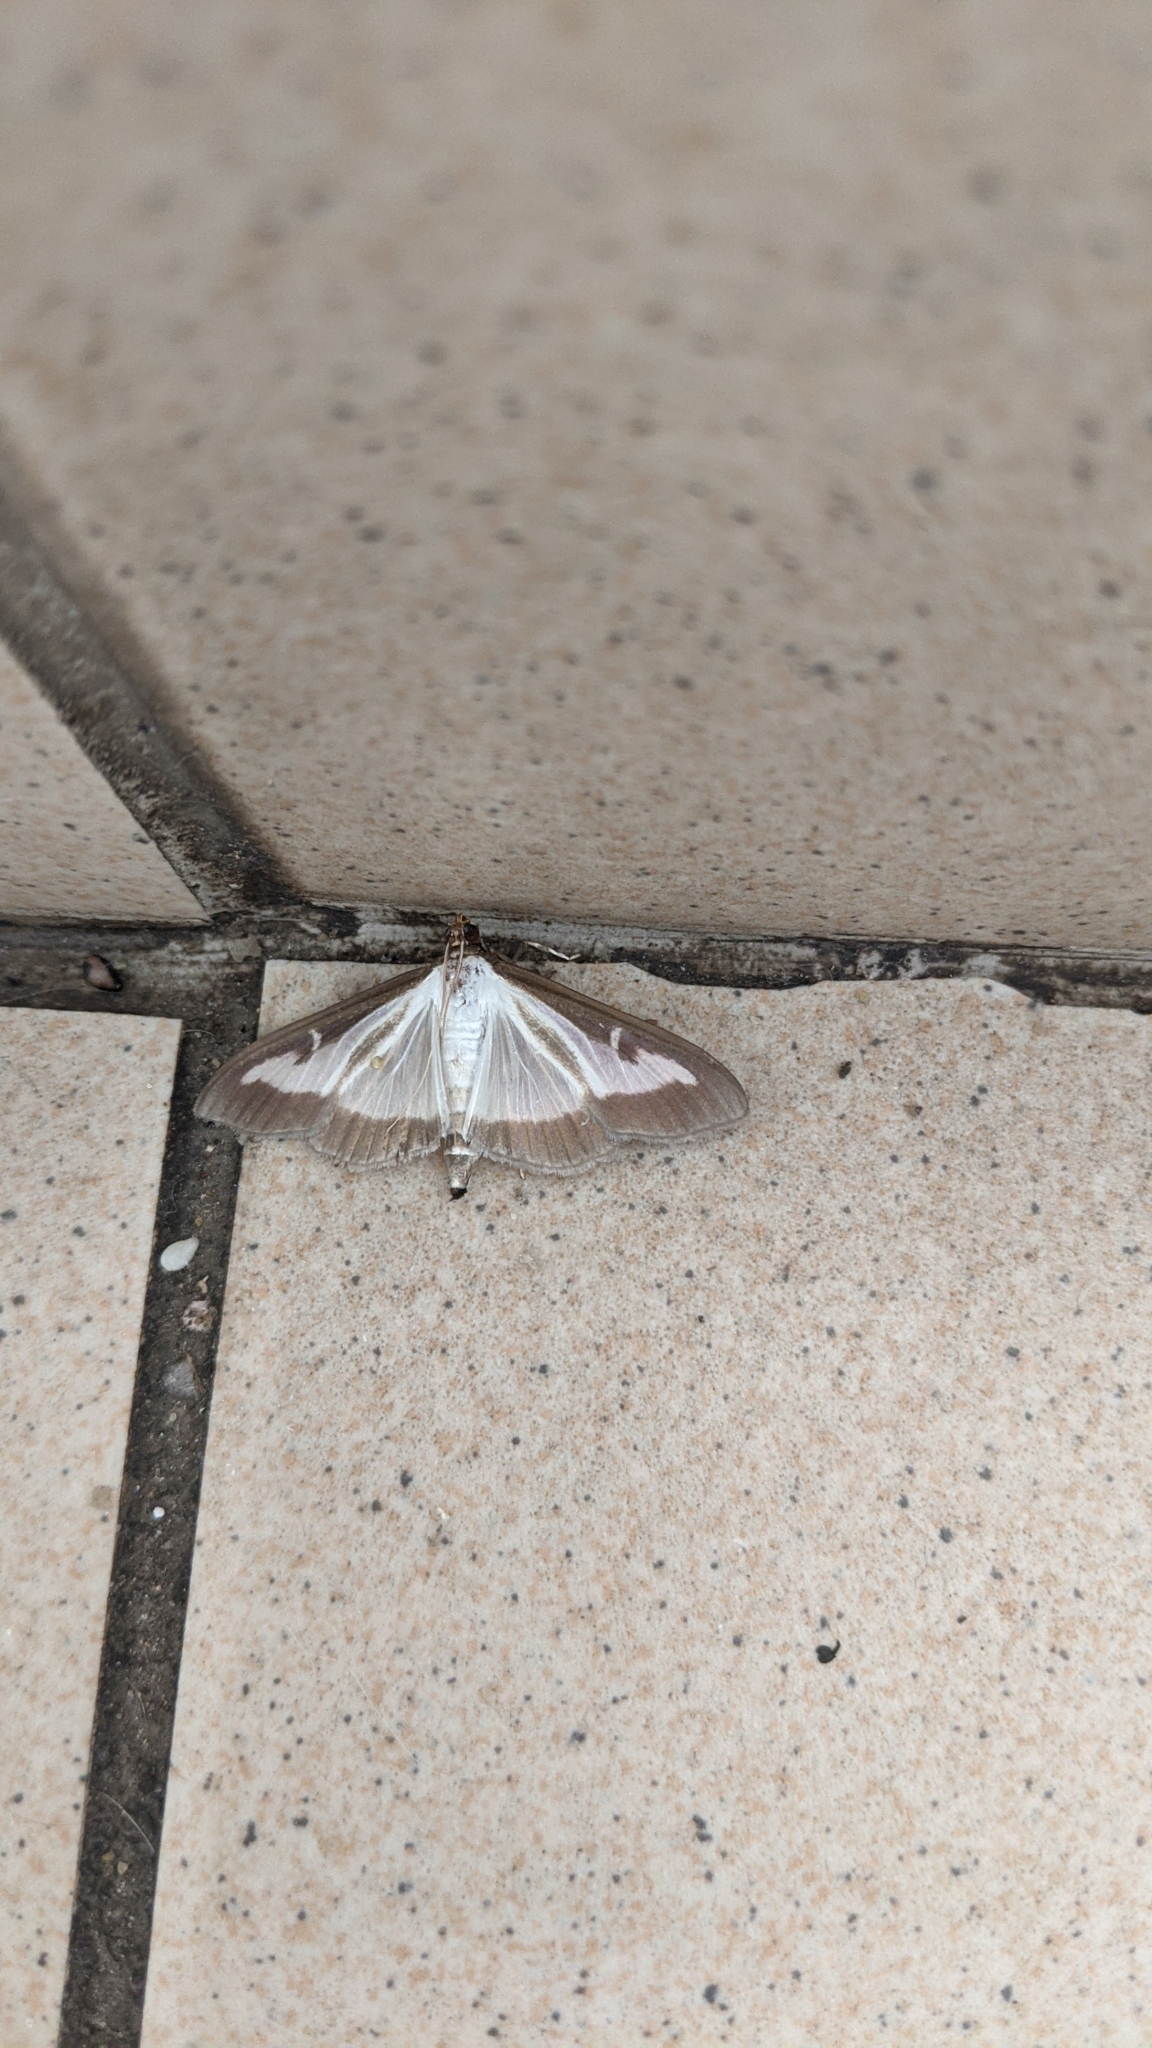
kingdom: Animalia
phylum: Arthropoda
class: Insecta
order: Lepidoptera
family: Crambidae
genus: Cydalima
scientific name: Cydalima perspectalis
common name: Box tree moth
